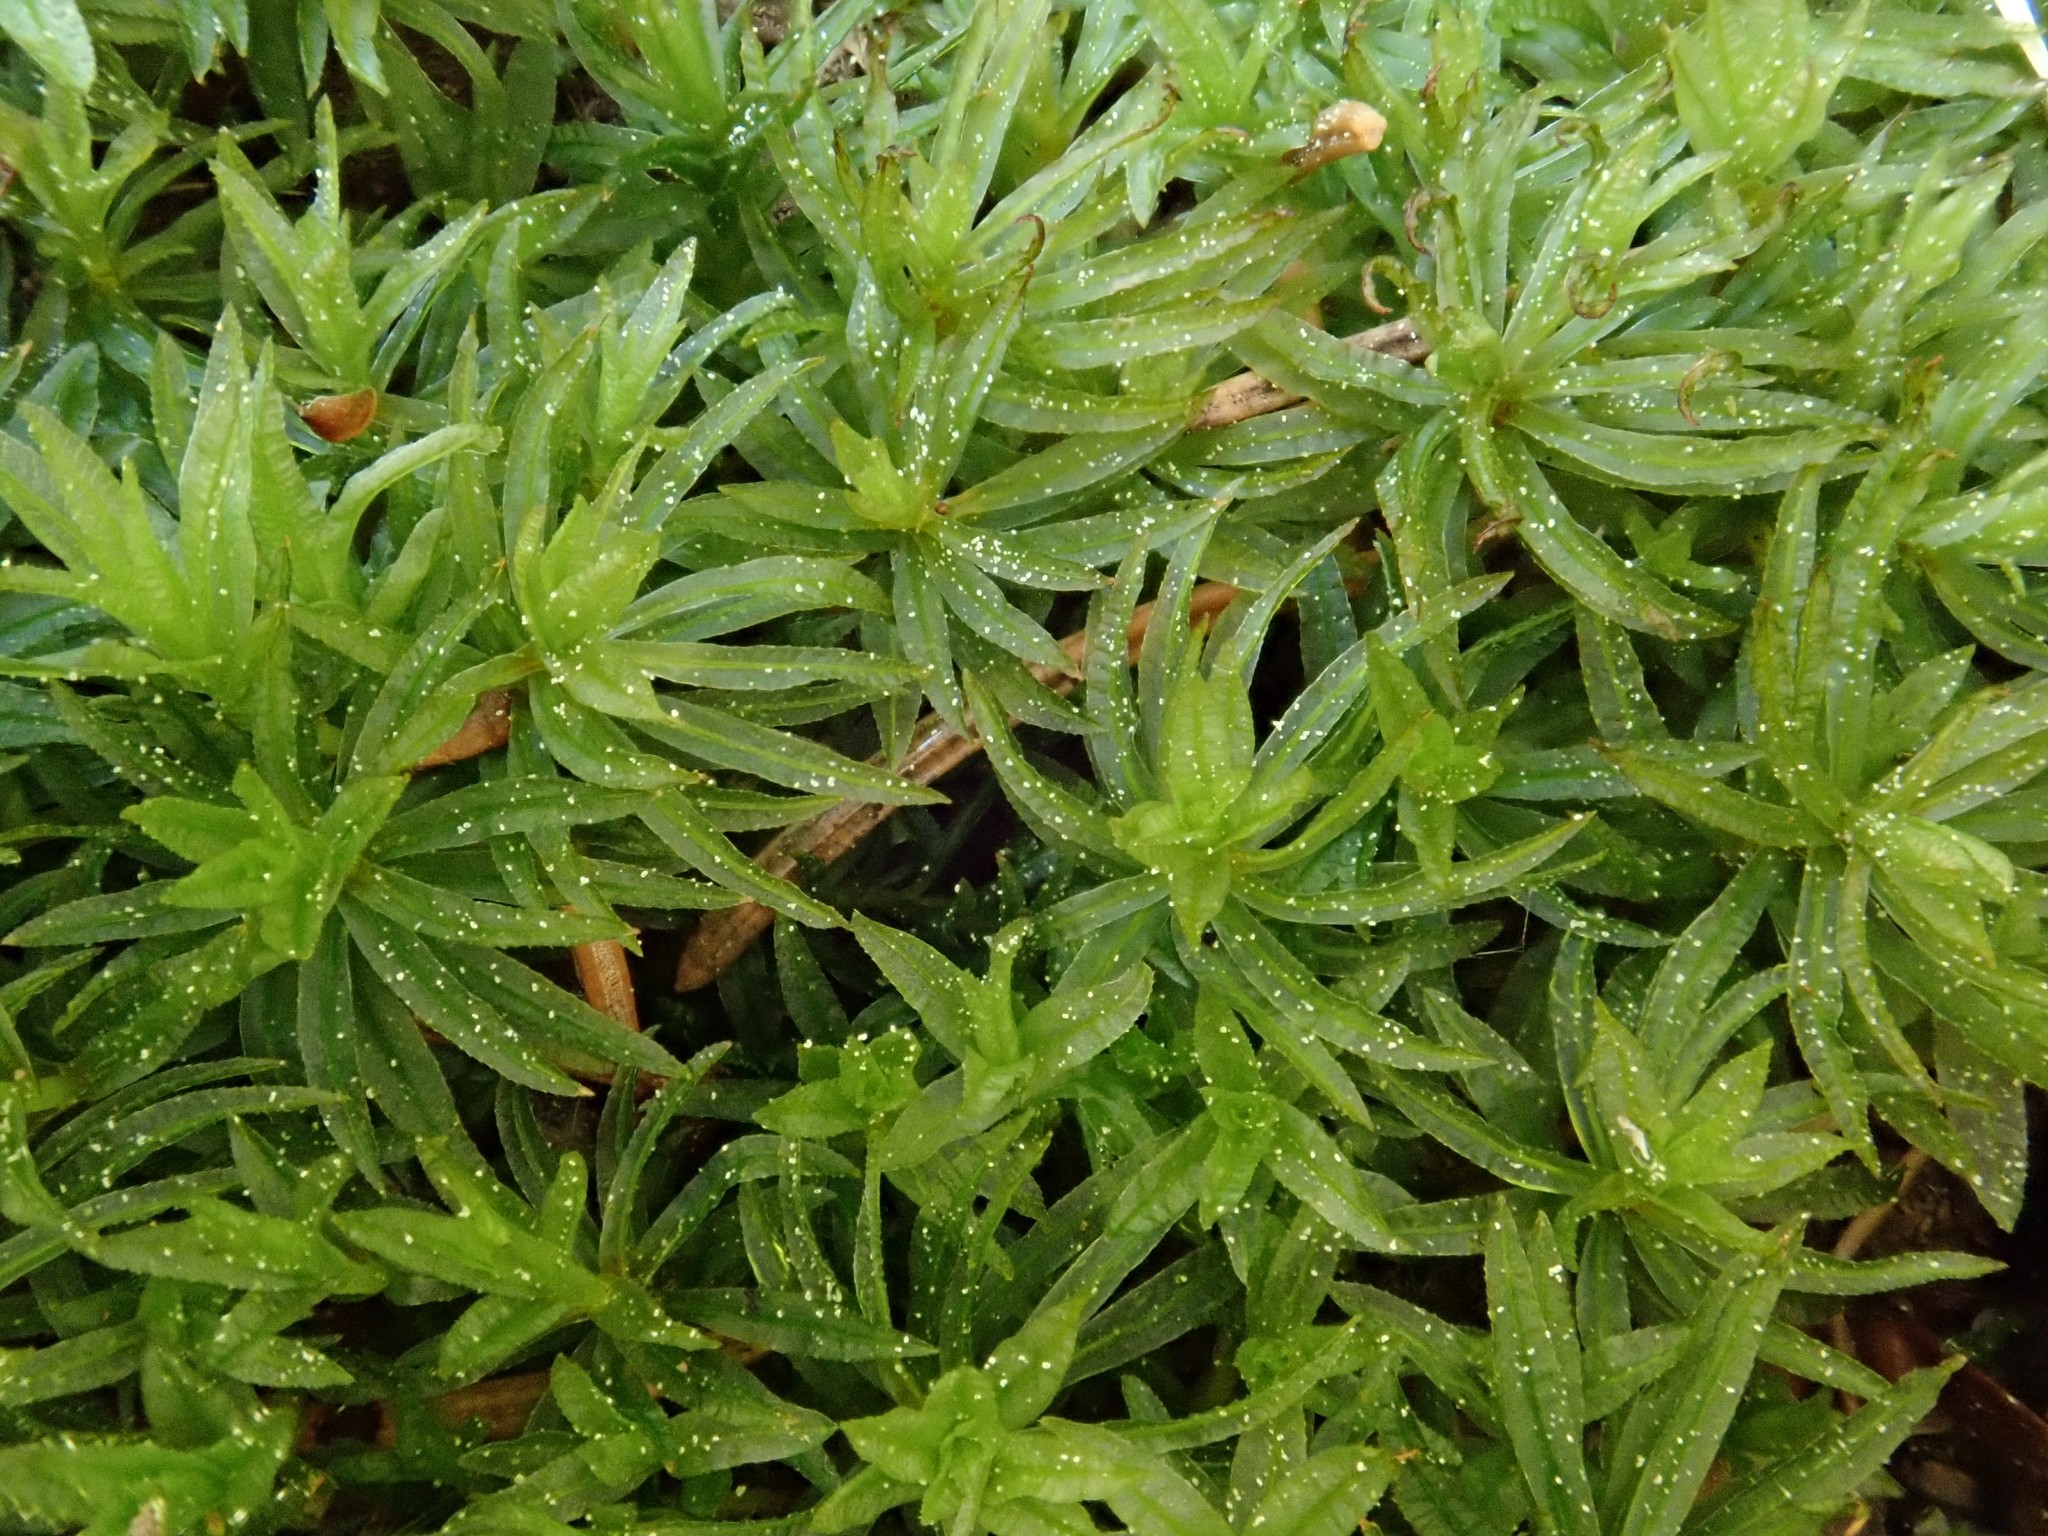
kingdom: Plantae
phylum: Bryophyta
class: Polytrichopsida
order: Polytrichales
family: Polytrichaceae
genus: Atrichum
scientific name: Atrichum undulatum
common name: Common smoothcap
